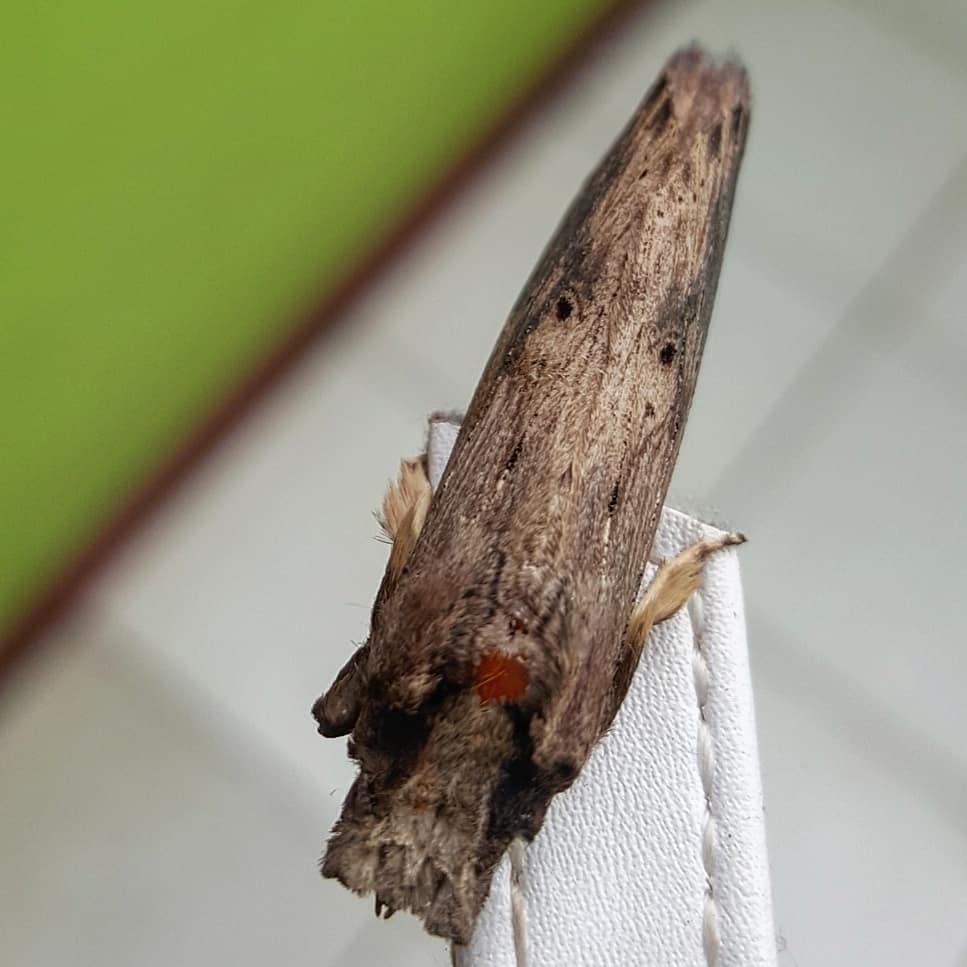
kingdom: Animalia
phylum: Arthropoda
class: Insecta
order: Lepidoptera
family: Notodontidae
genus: Nystalea
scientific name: Nystalea ebalea
